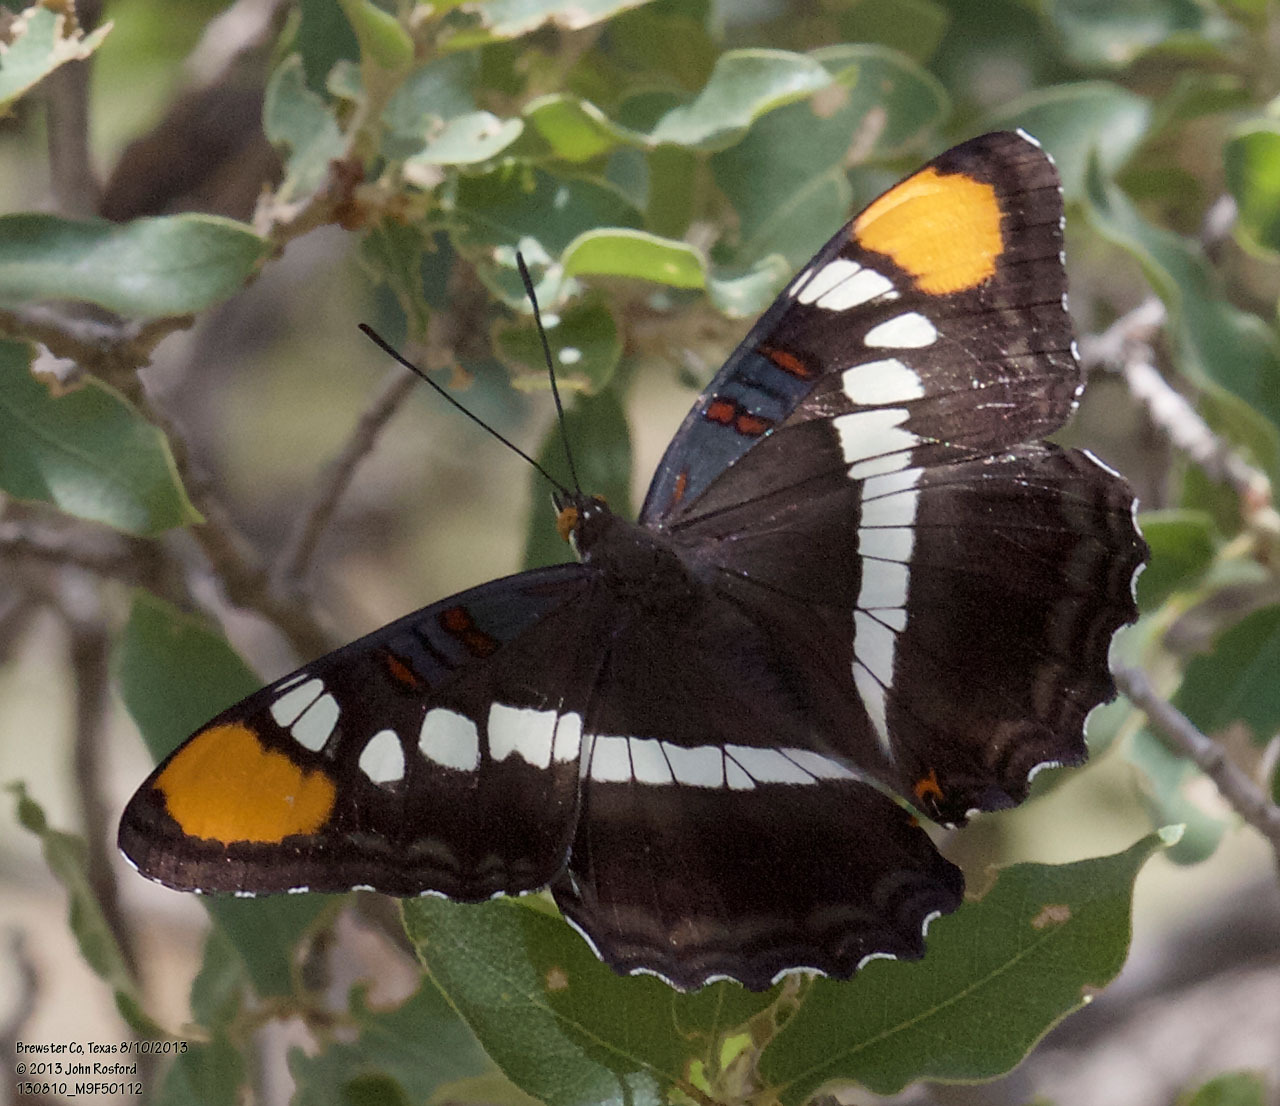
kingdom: Animalia
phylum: Arthropoda
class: Insecta
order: Lepidoptera
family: Nymphalidae
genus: Limenitis
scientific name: Limenitis bredowii
